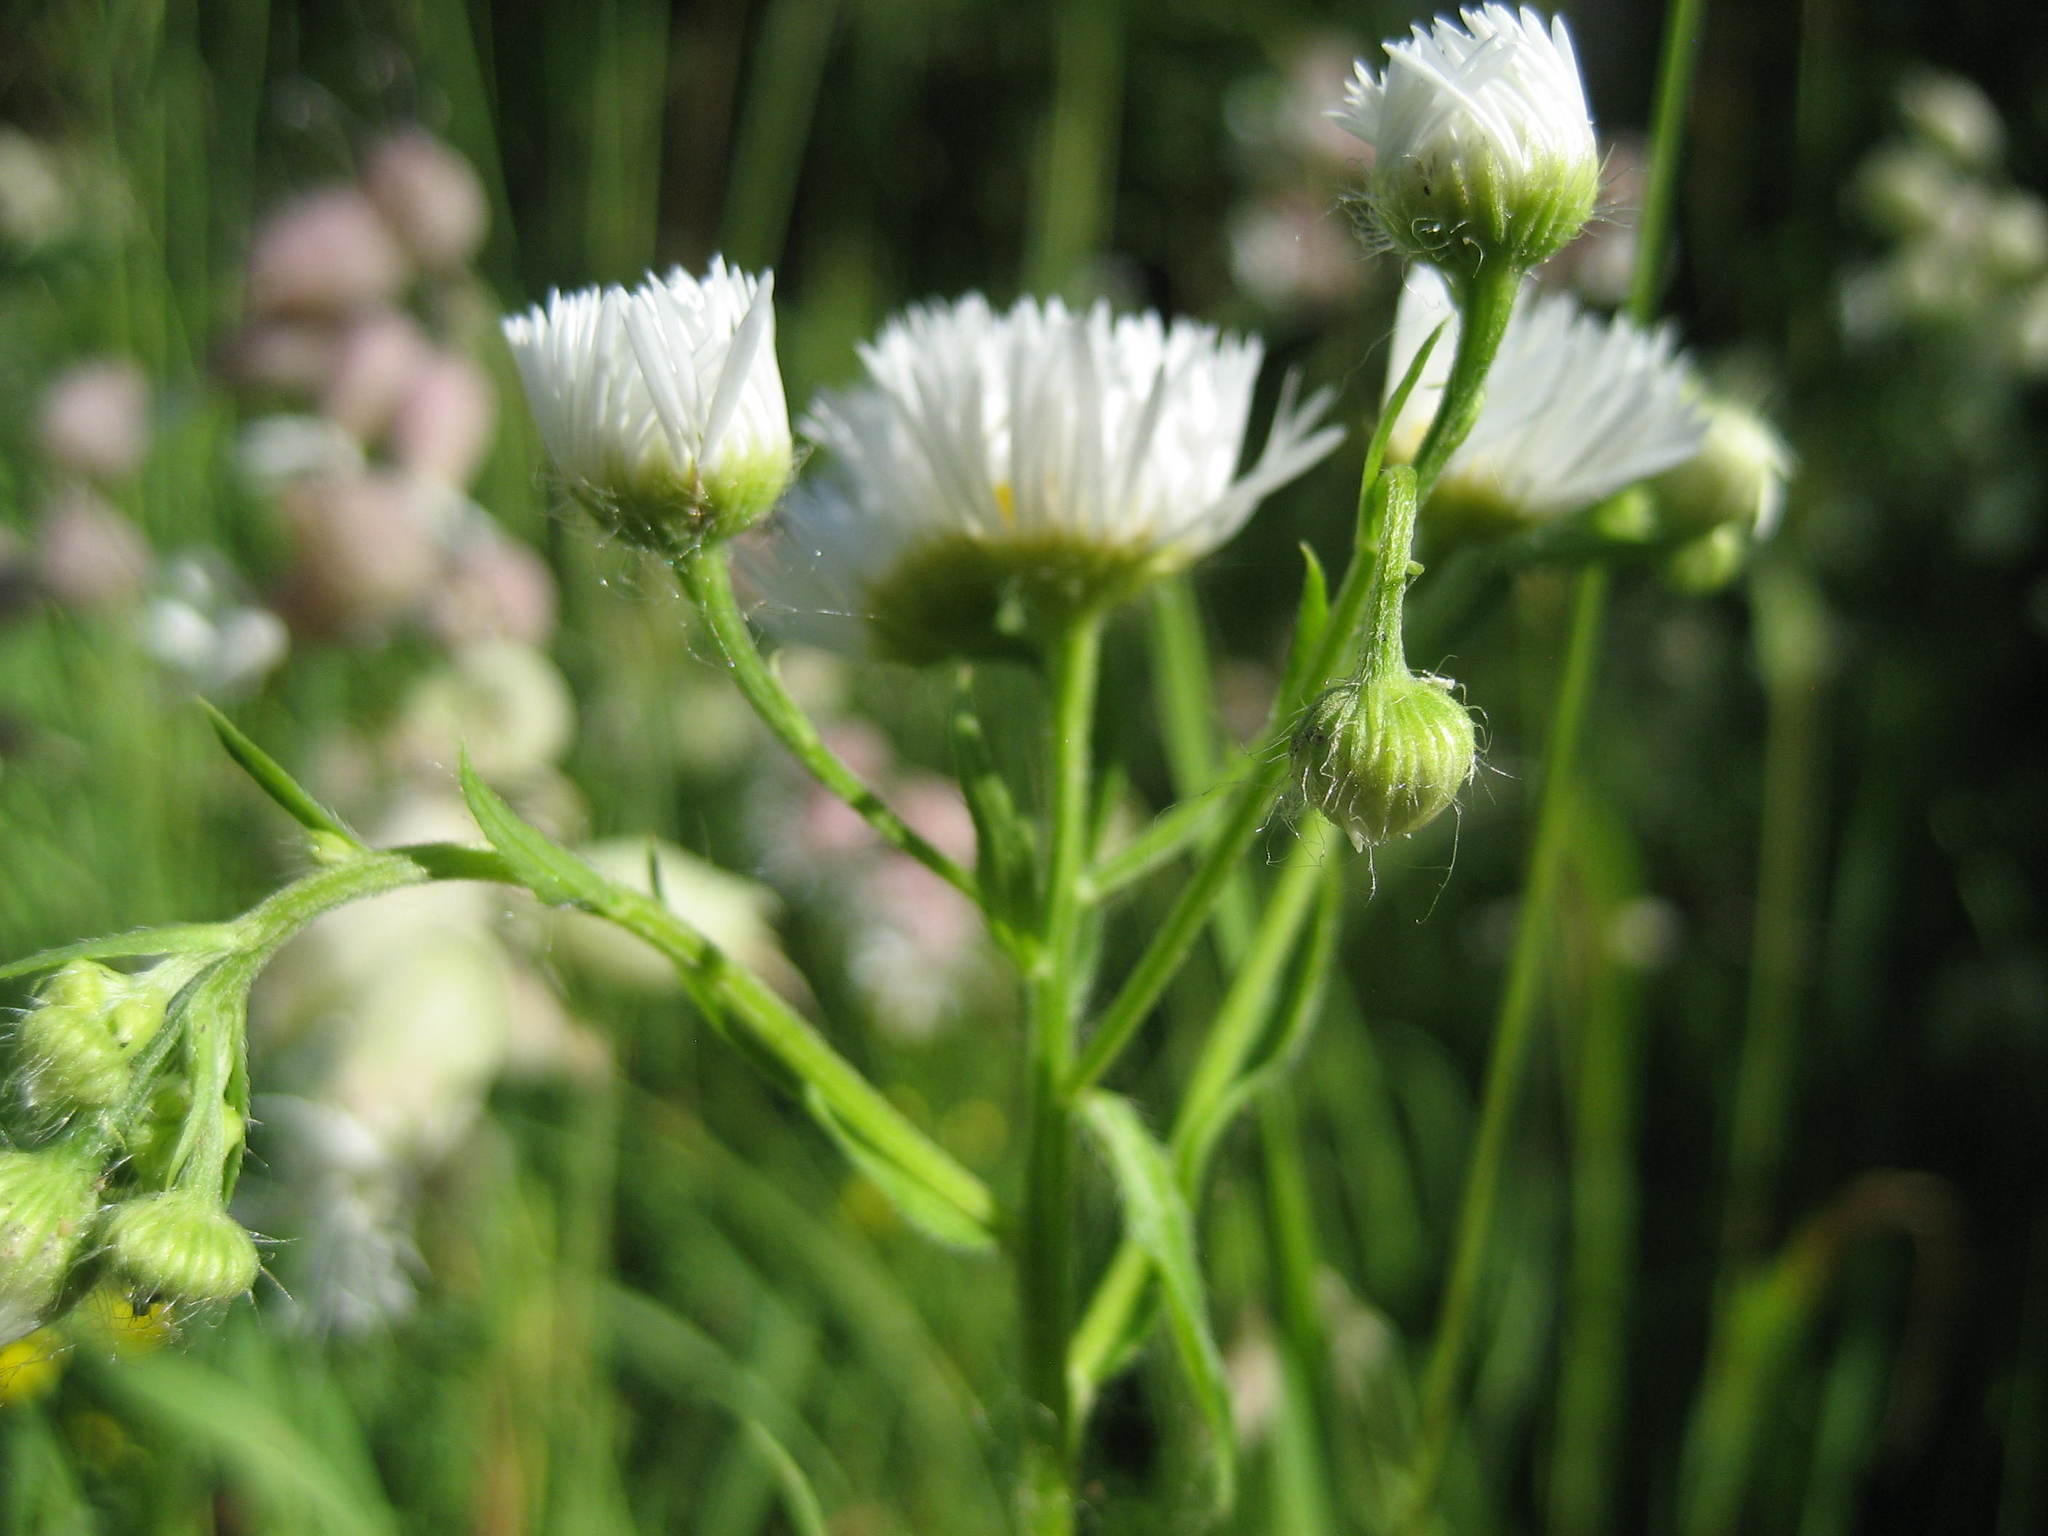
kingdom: Plantae
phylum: Tracheophyta
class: Magnoliopsida
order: Asterales
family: Asteraceae
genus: Erigeron
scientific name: Erigeron annuus
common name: Tall fleabane
